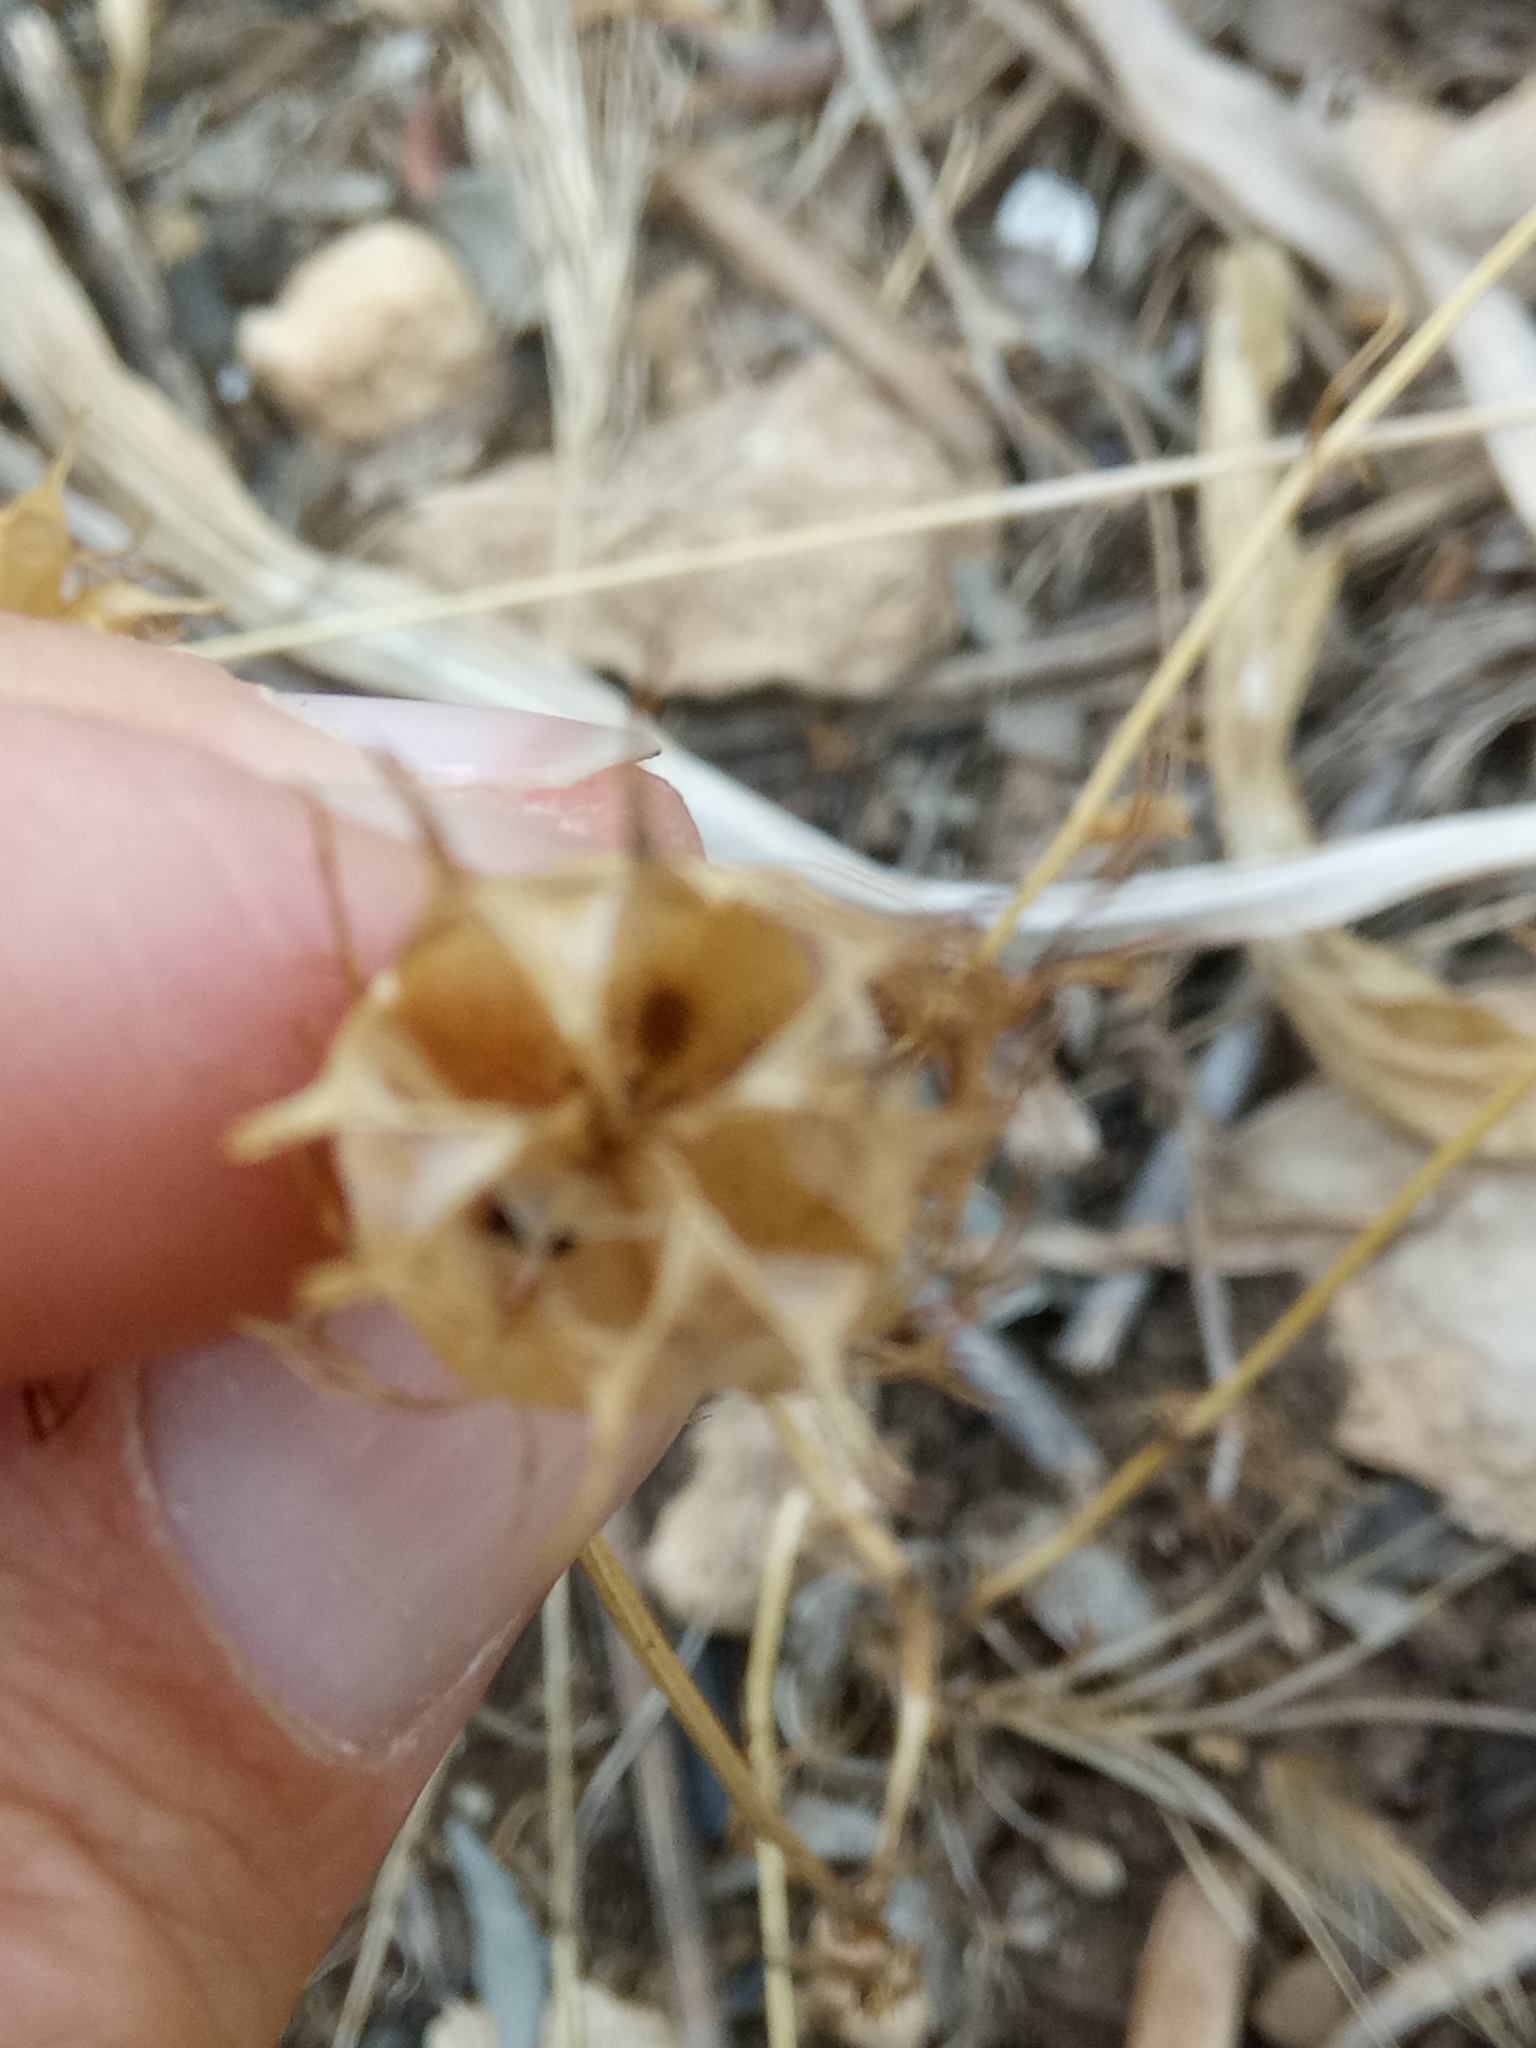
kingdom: Plantae
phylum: Tracheophyta
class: Magnoliopsida
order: Ranunculales
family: Ranunculaceae
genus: Nigella
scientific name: Nigella damascena
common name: Love-in-a-mist
